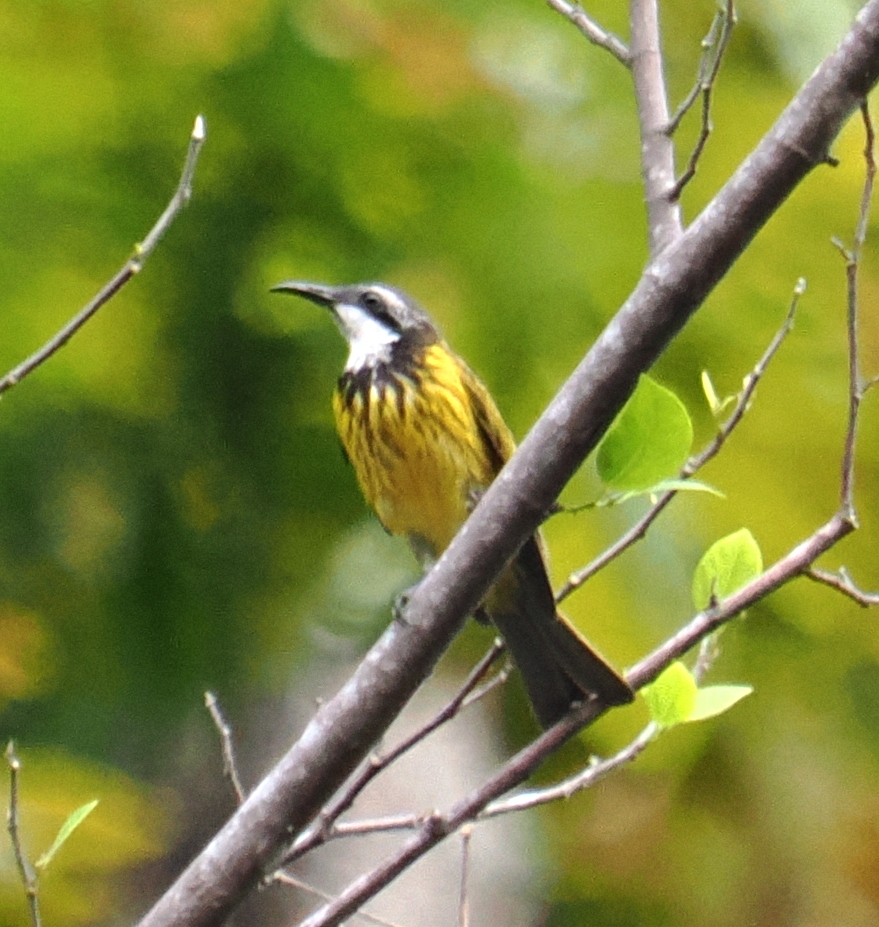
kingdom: Animalia
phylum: Chordata
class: Aves
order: Passeriformes
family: Meliphagidae
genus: Lichmera
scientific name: Lichmera notabilis
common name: Black-necklaced honeyeater
